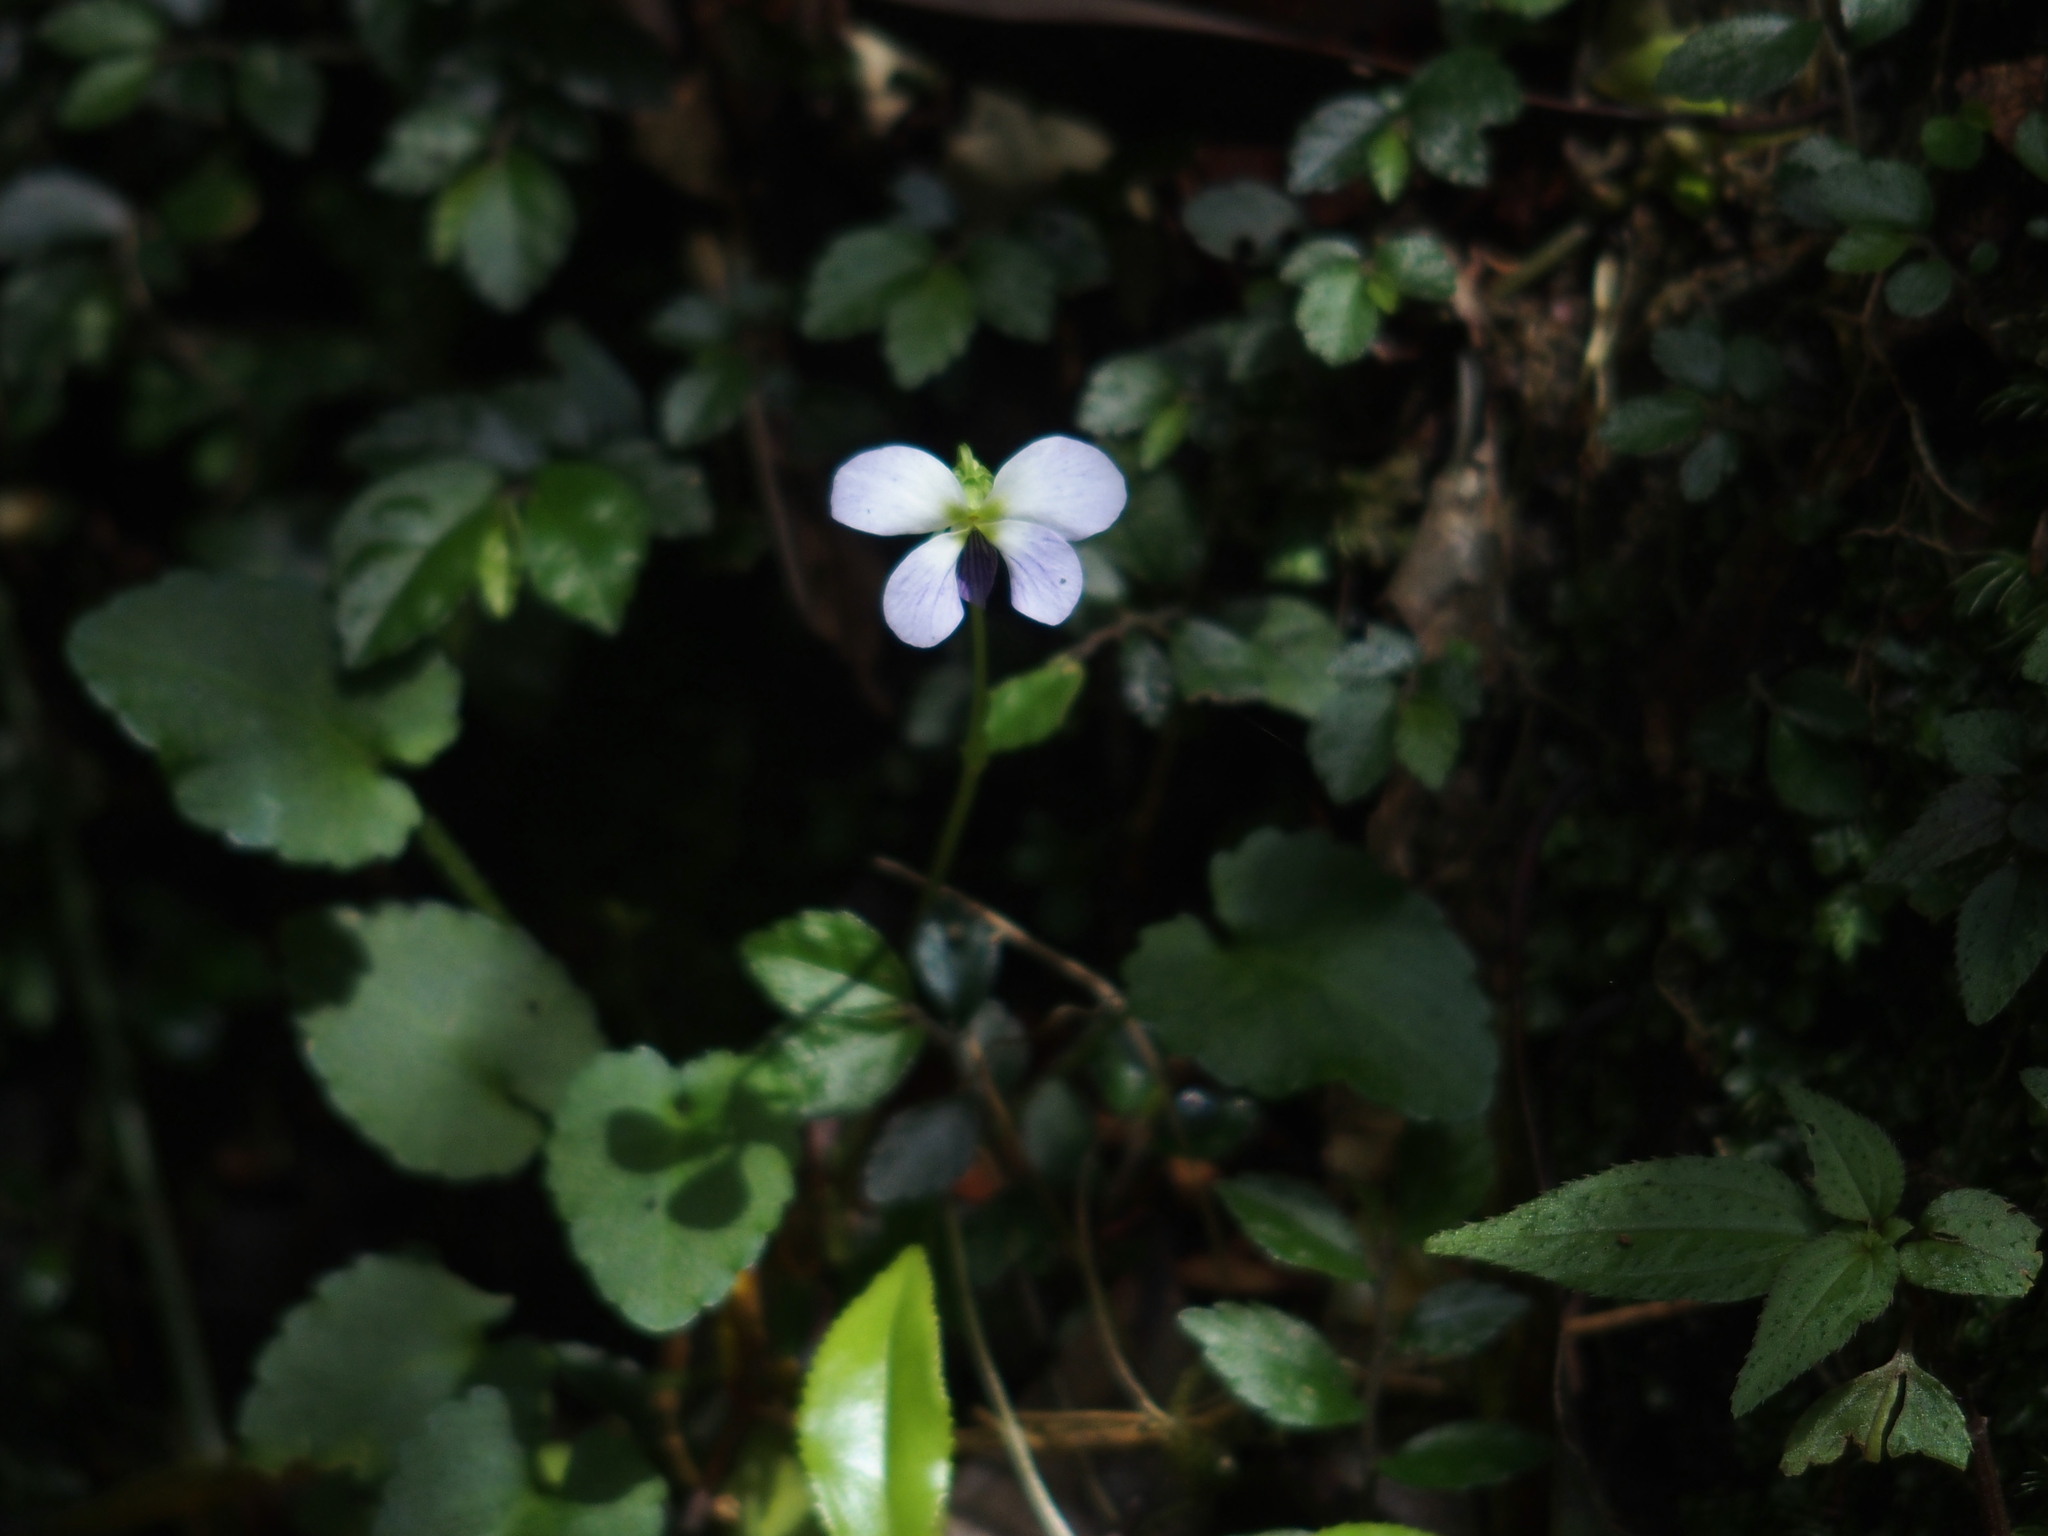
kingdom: Plantae
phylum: Tracheophyta
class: Magnoliopsida
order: Malpighiales
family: Violaceae
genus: Viola
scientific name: Viola nagasawae
